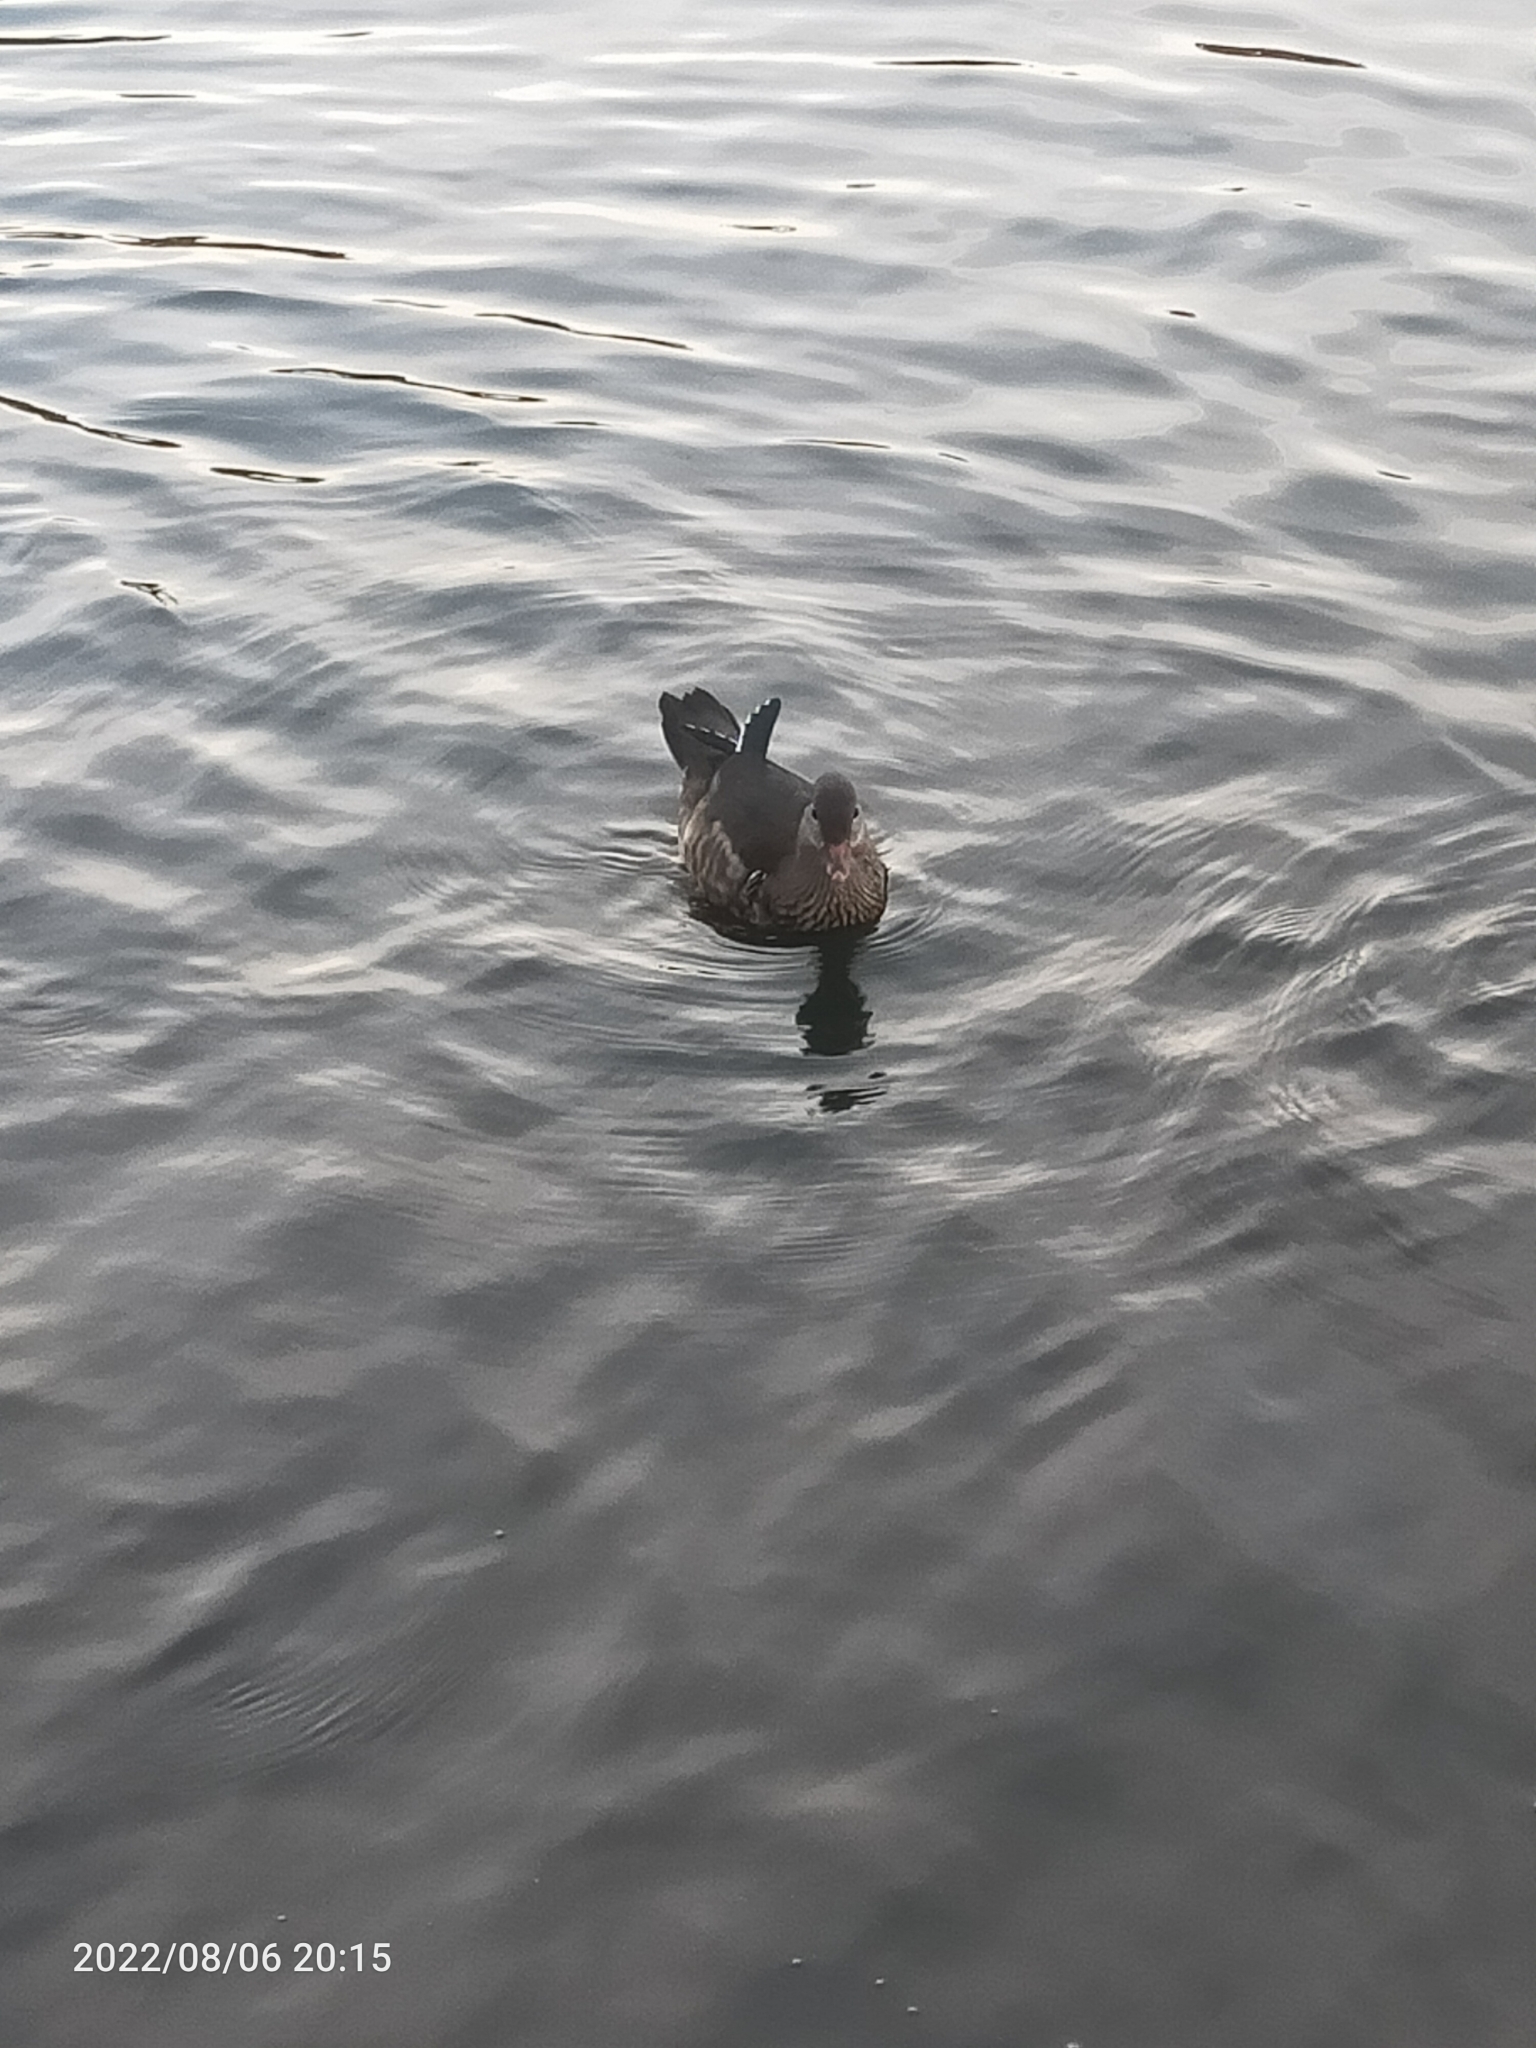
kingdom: Animalia
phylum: Chordata
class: Aves
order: Anseriformes
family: Anatidae
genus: Aix
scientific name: Aix galericulata
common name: Mandarin duck
